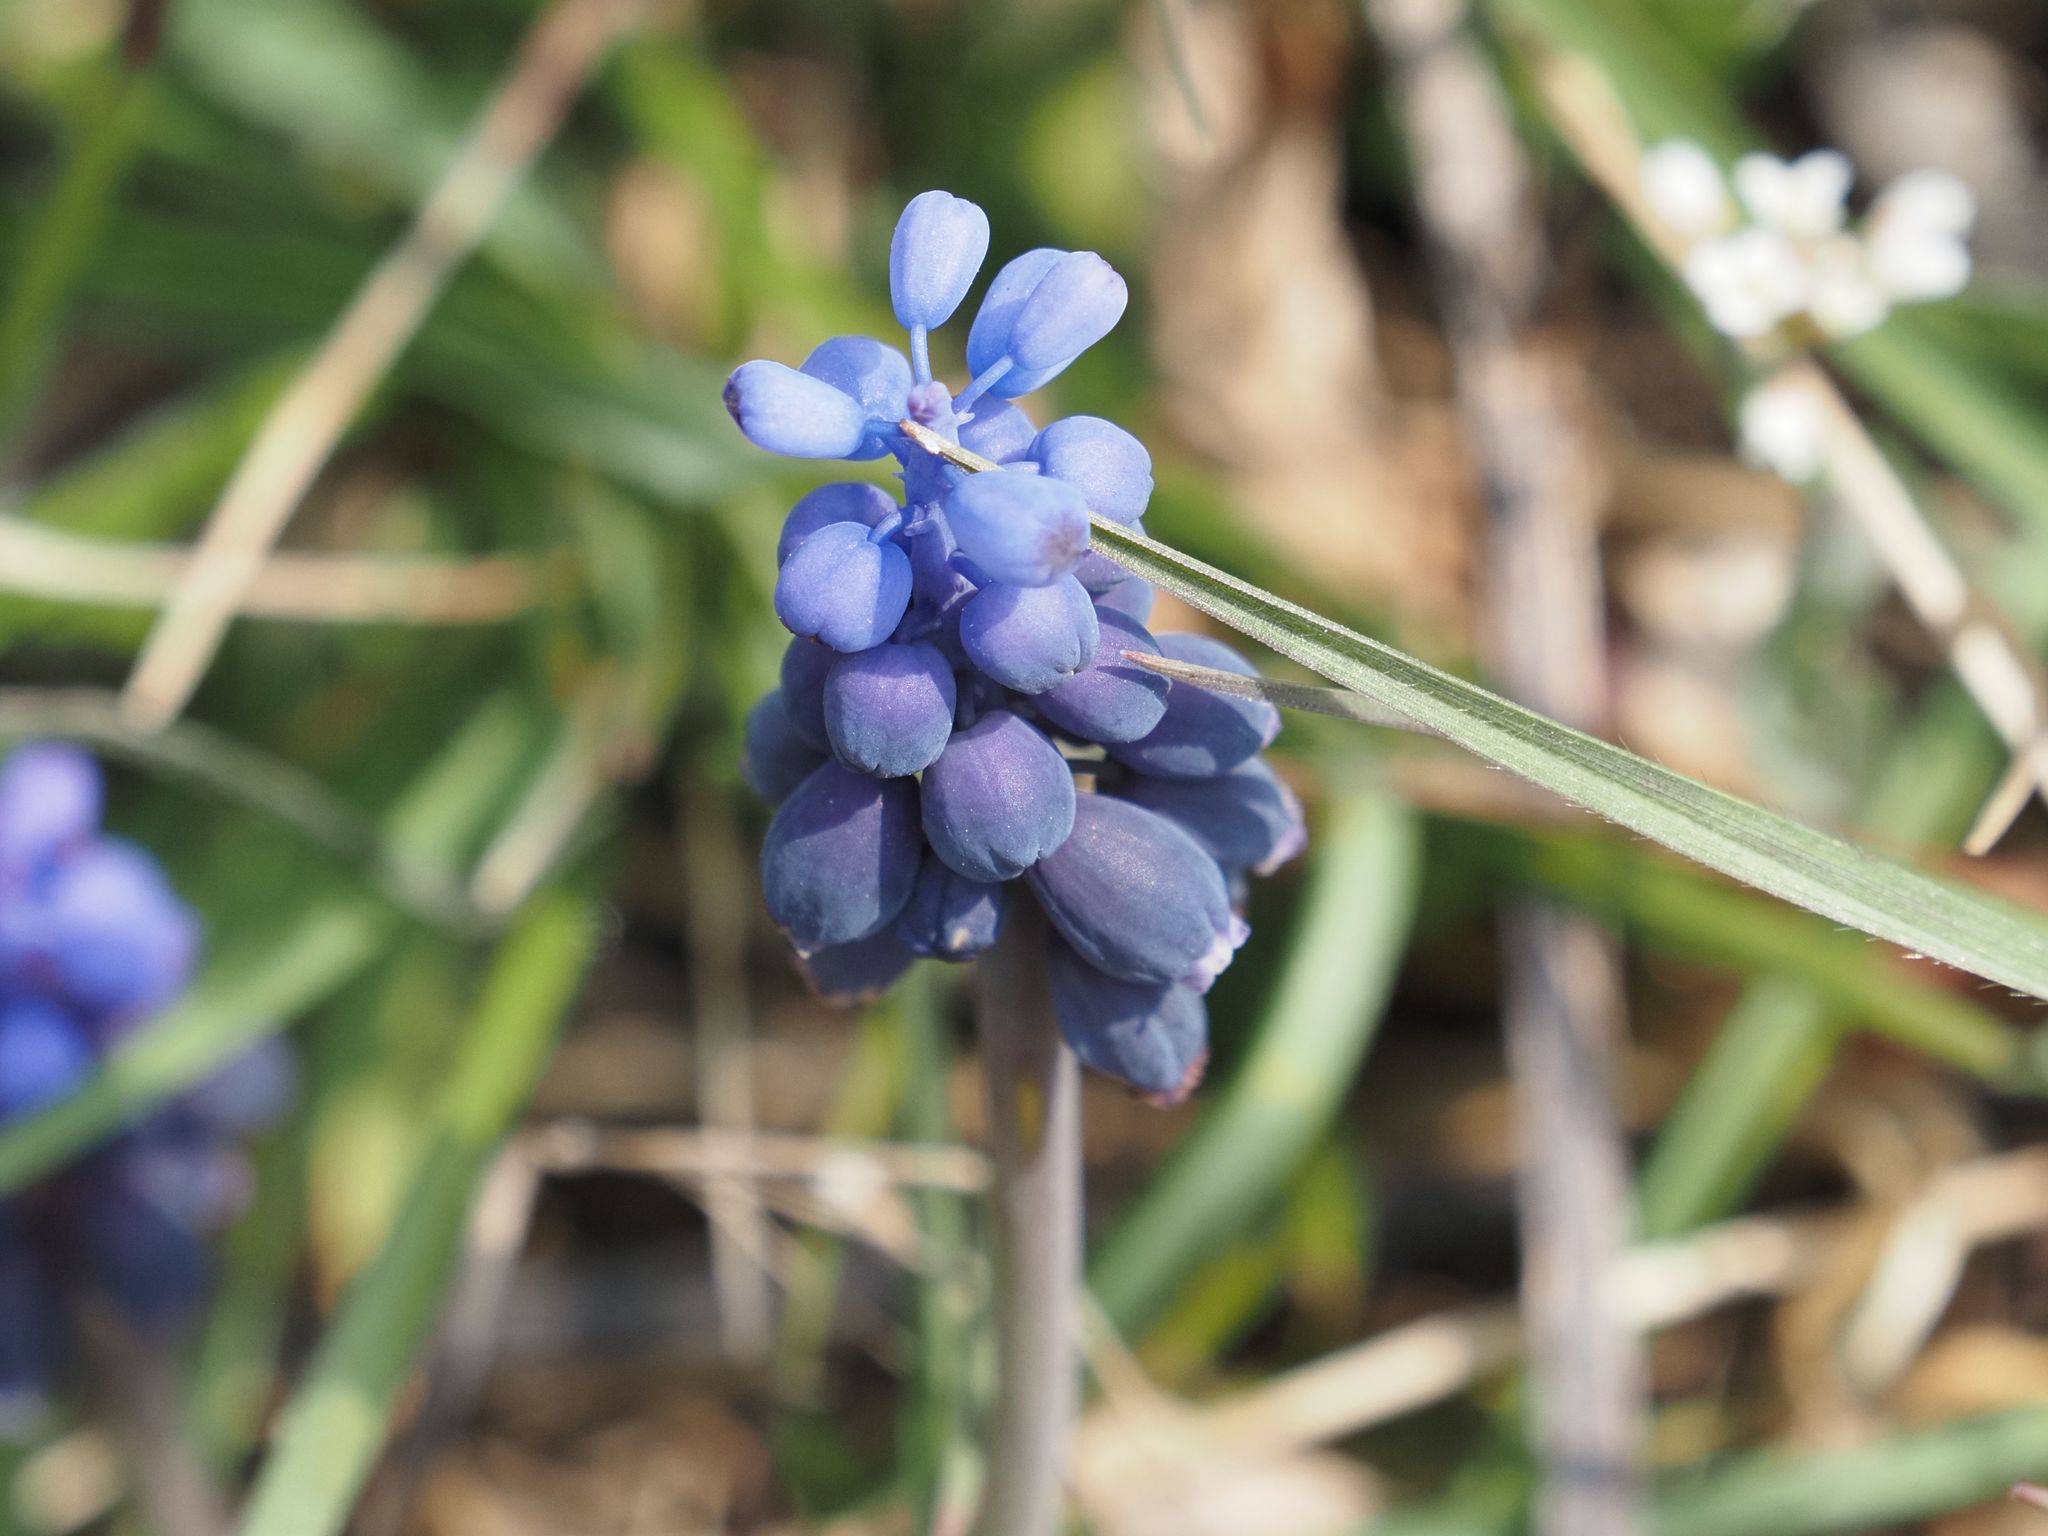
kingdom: Plantae
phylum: Tracheophyta
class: Liliopsida
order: Asparagales
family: Asparagaceae
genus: Muscari
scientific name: Muscari neglectum
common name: Grape-hyacinth
